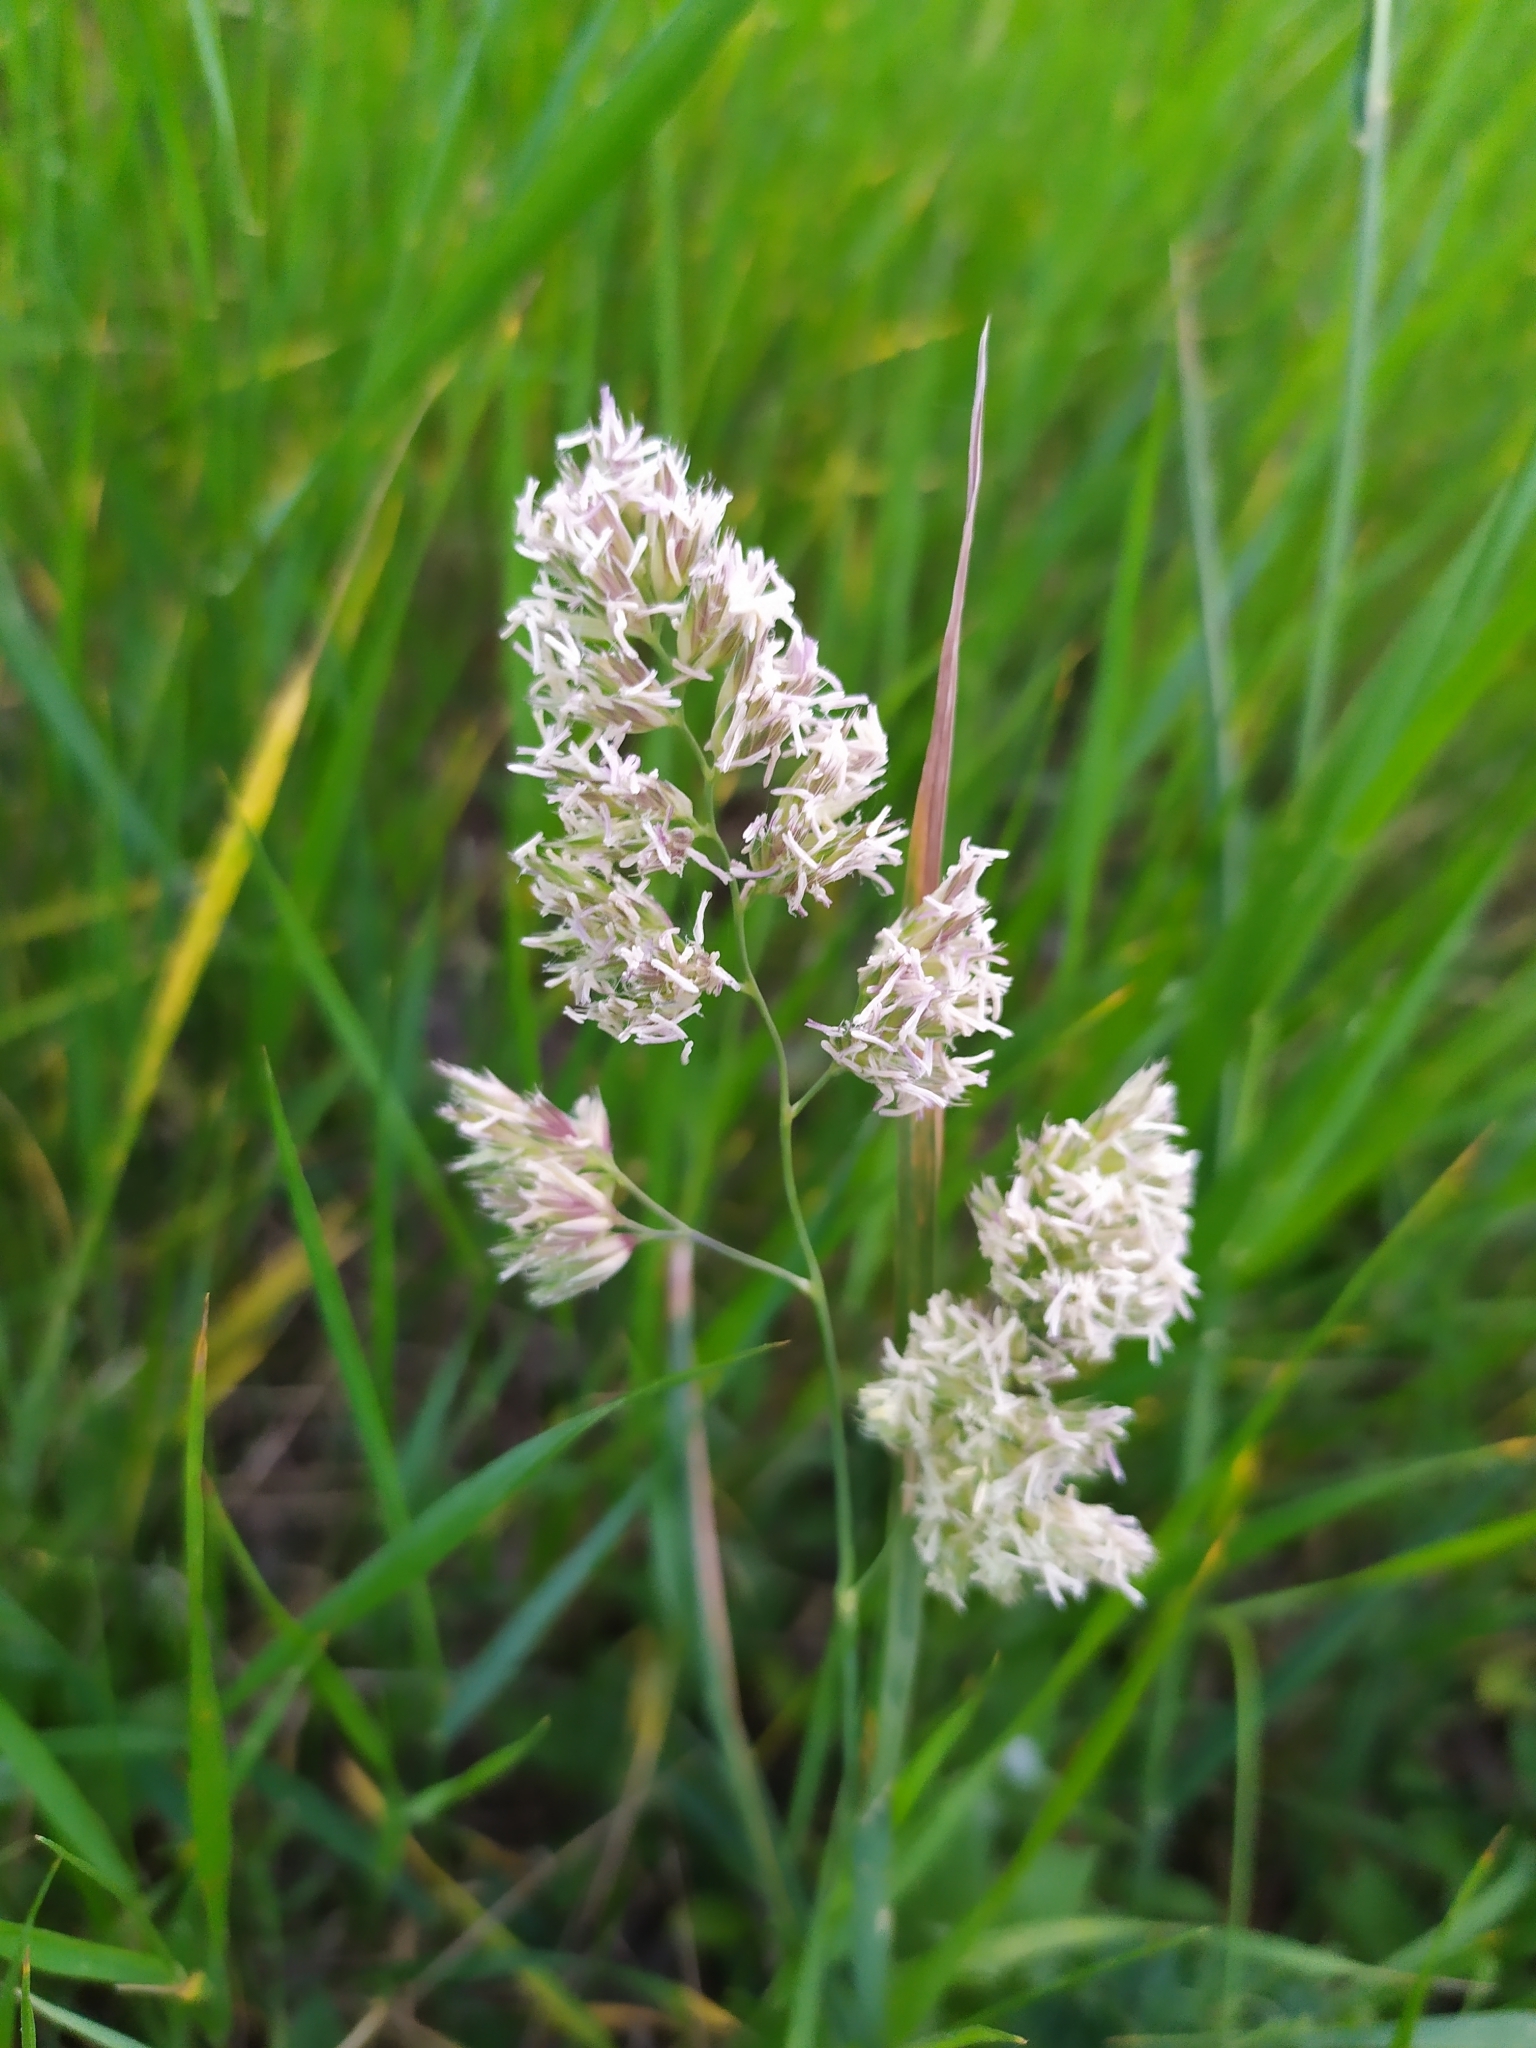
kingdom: Plantae
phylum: Tracheophyta
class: Liliopsida
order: Poales
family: Poaceae
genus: Dactylis
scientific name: Dactylis glomerata
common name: Orchardgrass
